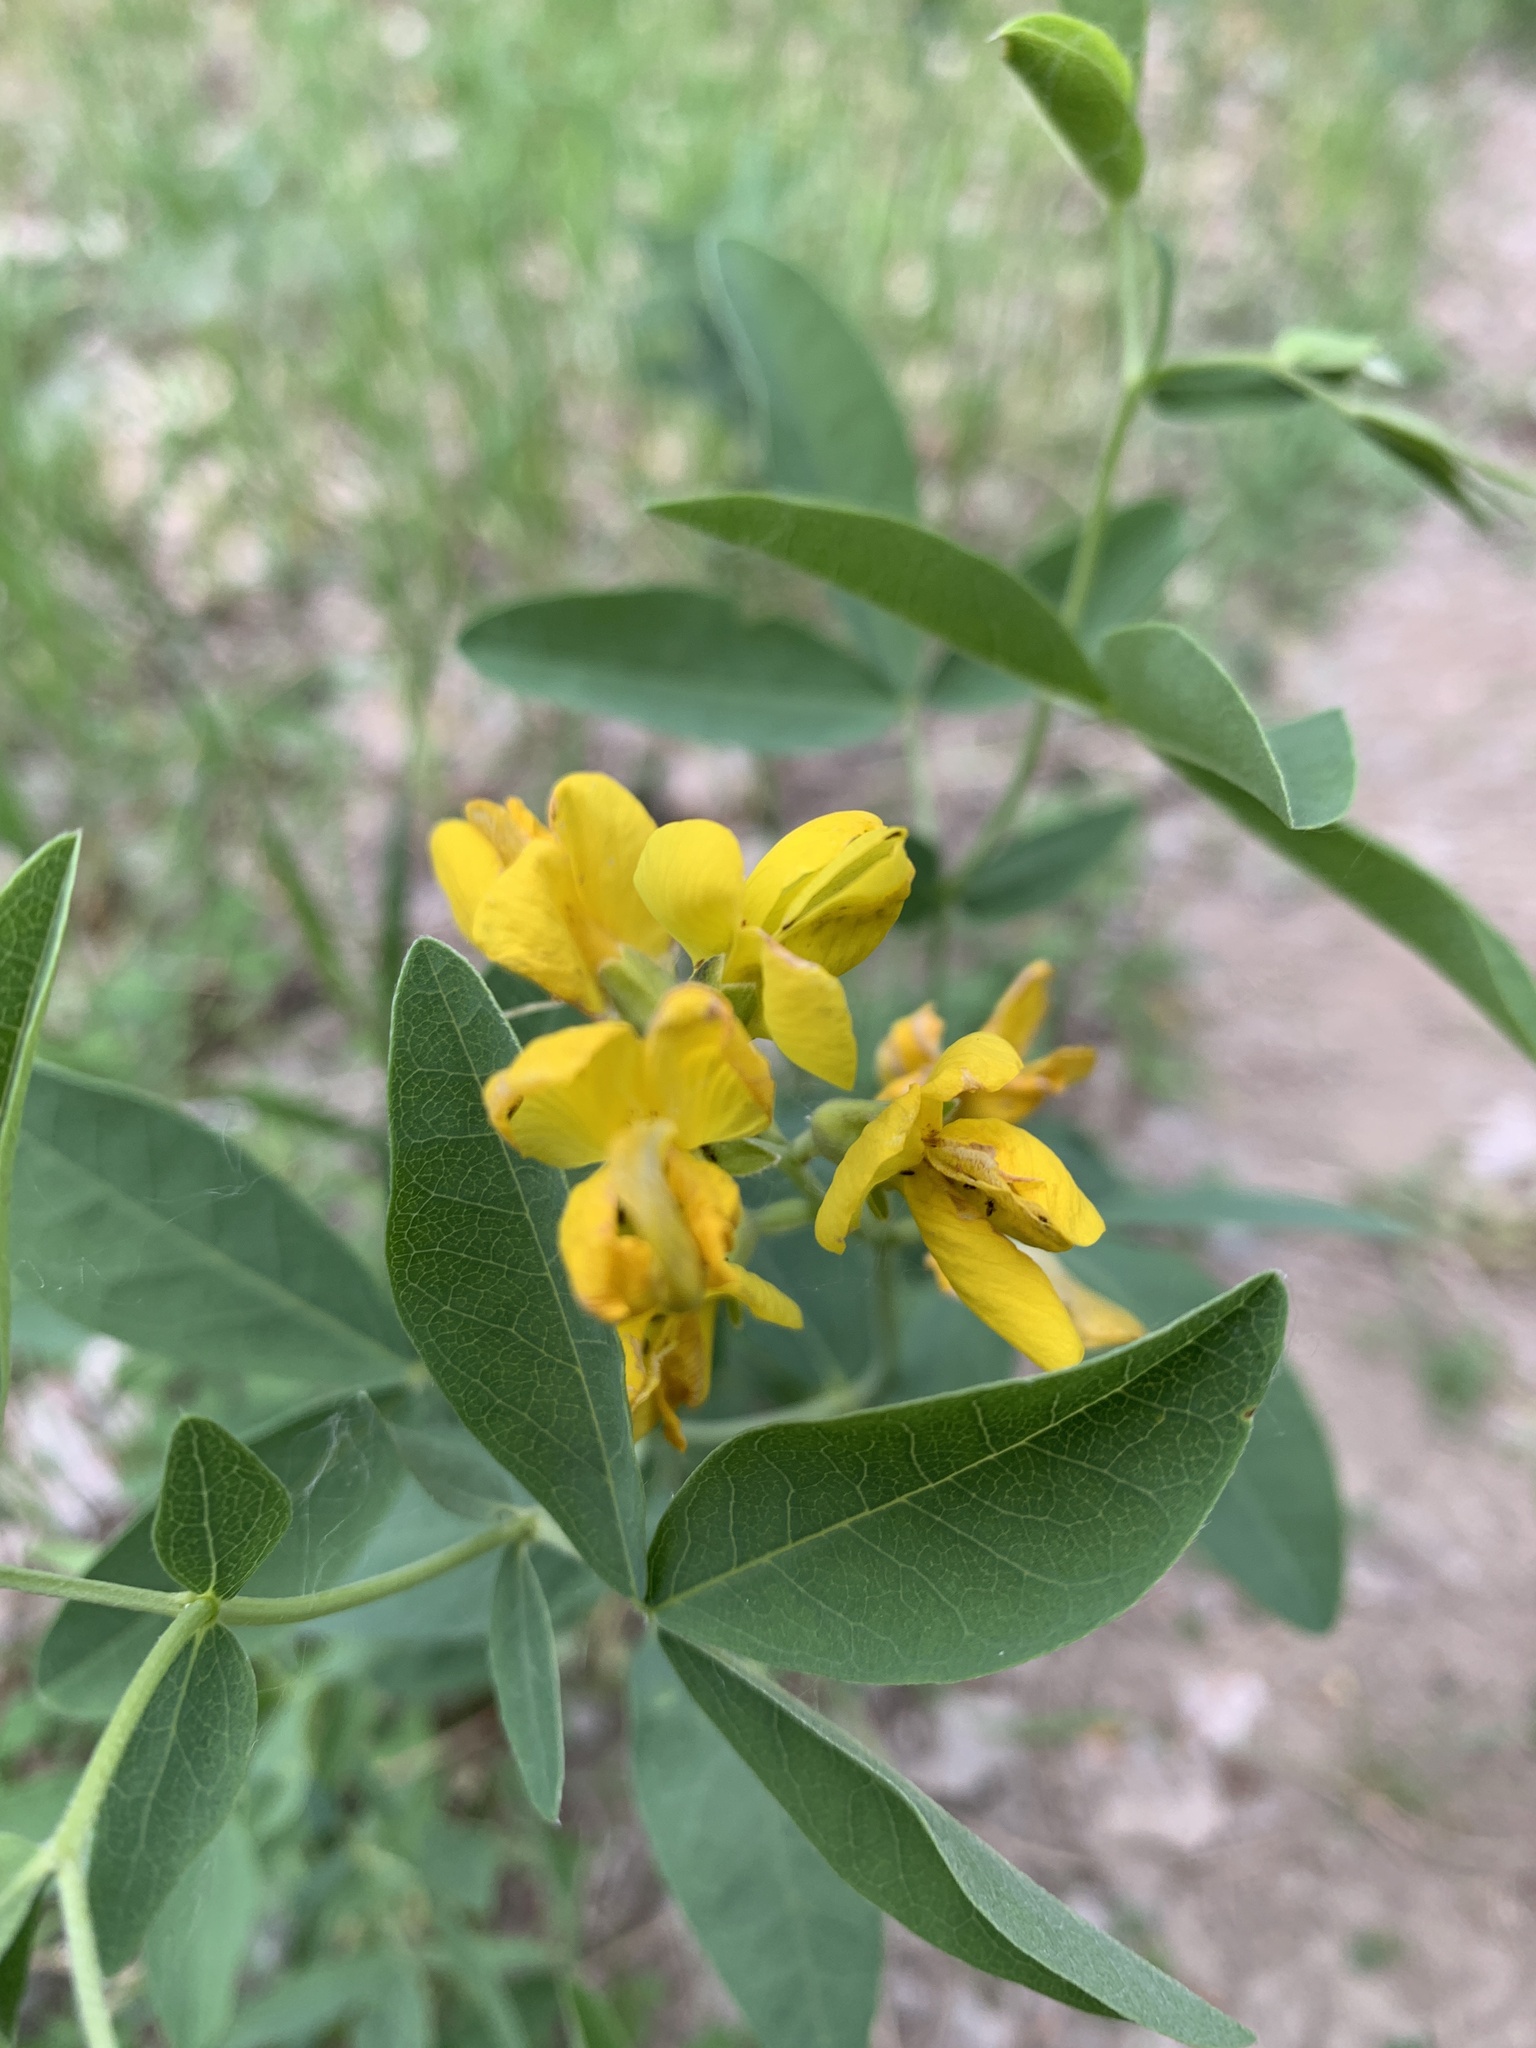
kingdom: Plantae
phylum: Tracheophyta
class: Magnoliopsida
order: Fabales
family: Fabaceae
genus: Thermopsis
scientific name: Thermopsis rhombifolia
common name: Circle-pod-pea
